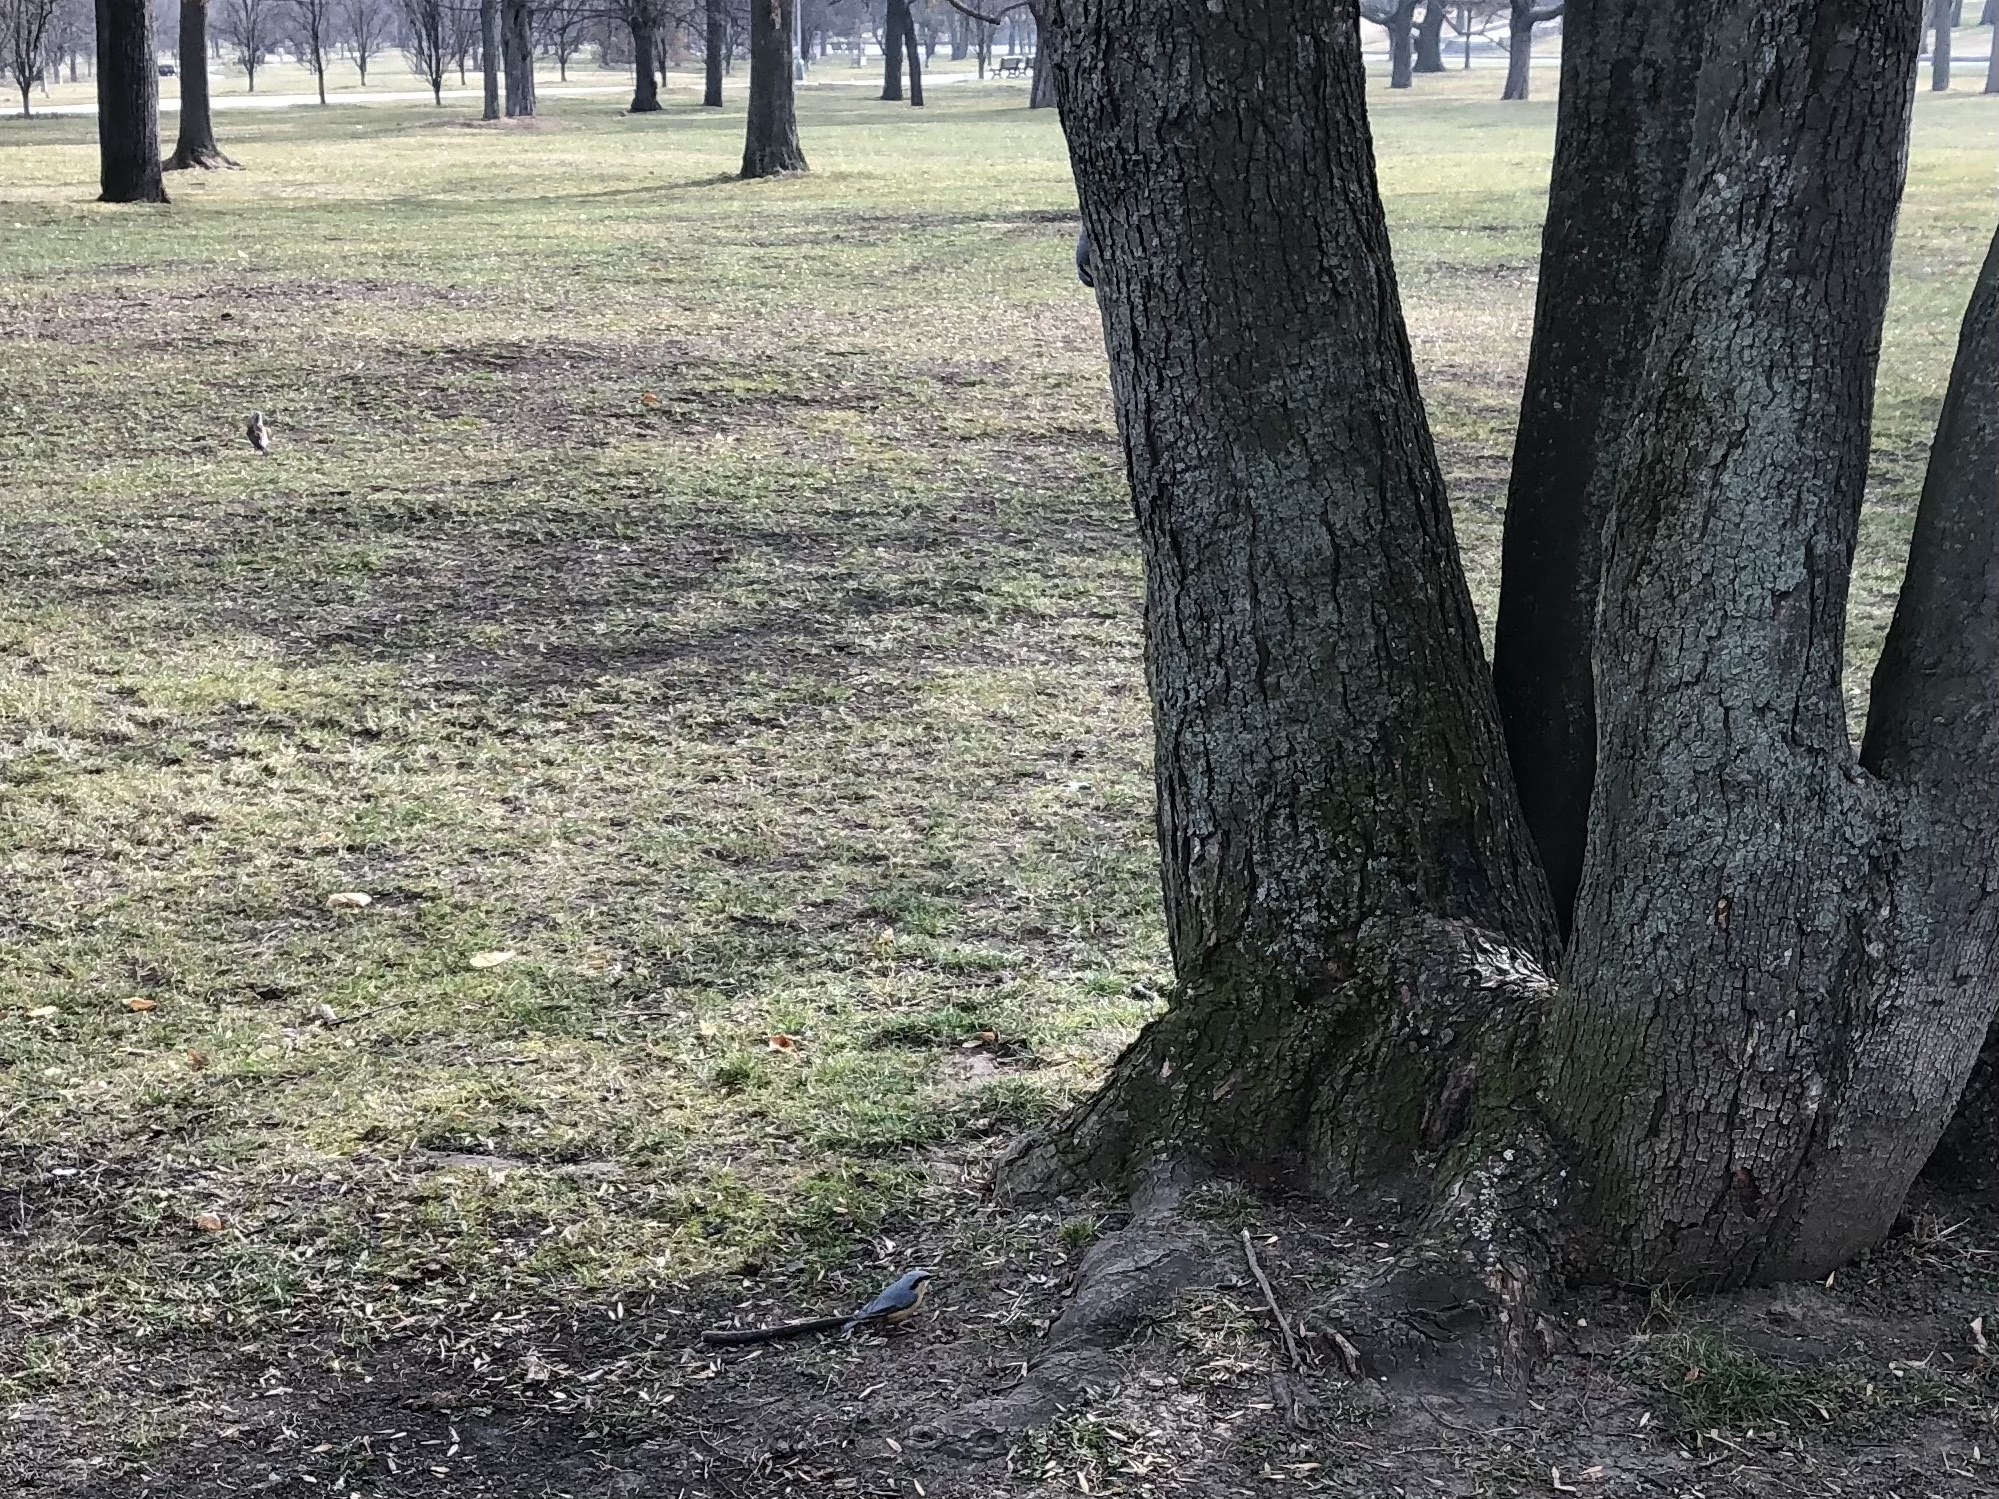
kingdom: Animalia
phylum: Chordata
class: Aves
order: Passeriformes
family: Sittidae
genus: Sitta
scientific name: Sitta europaea
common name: Eurasian nuthatch
